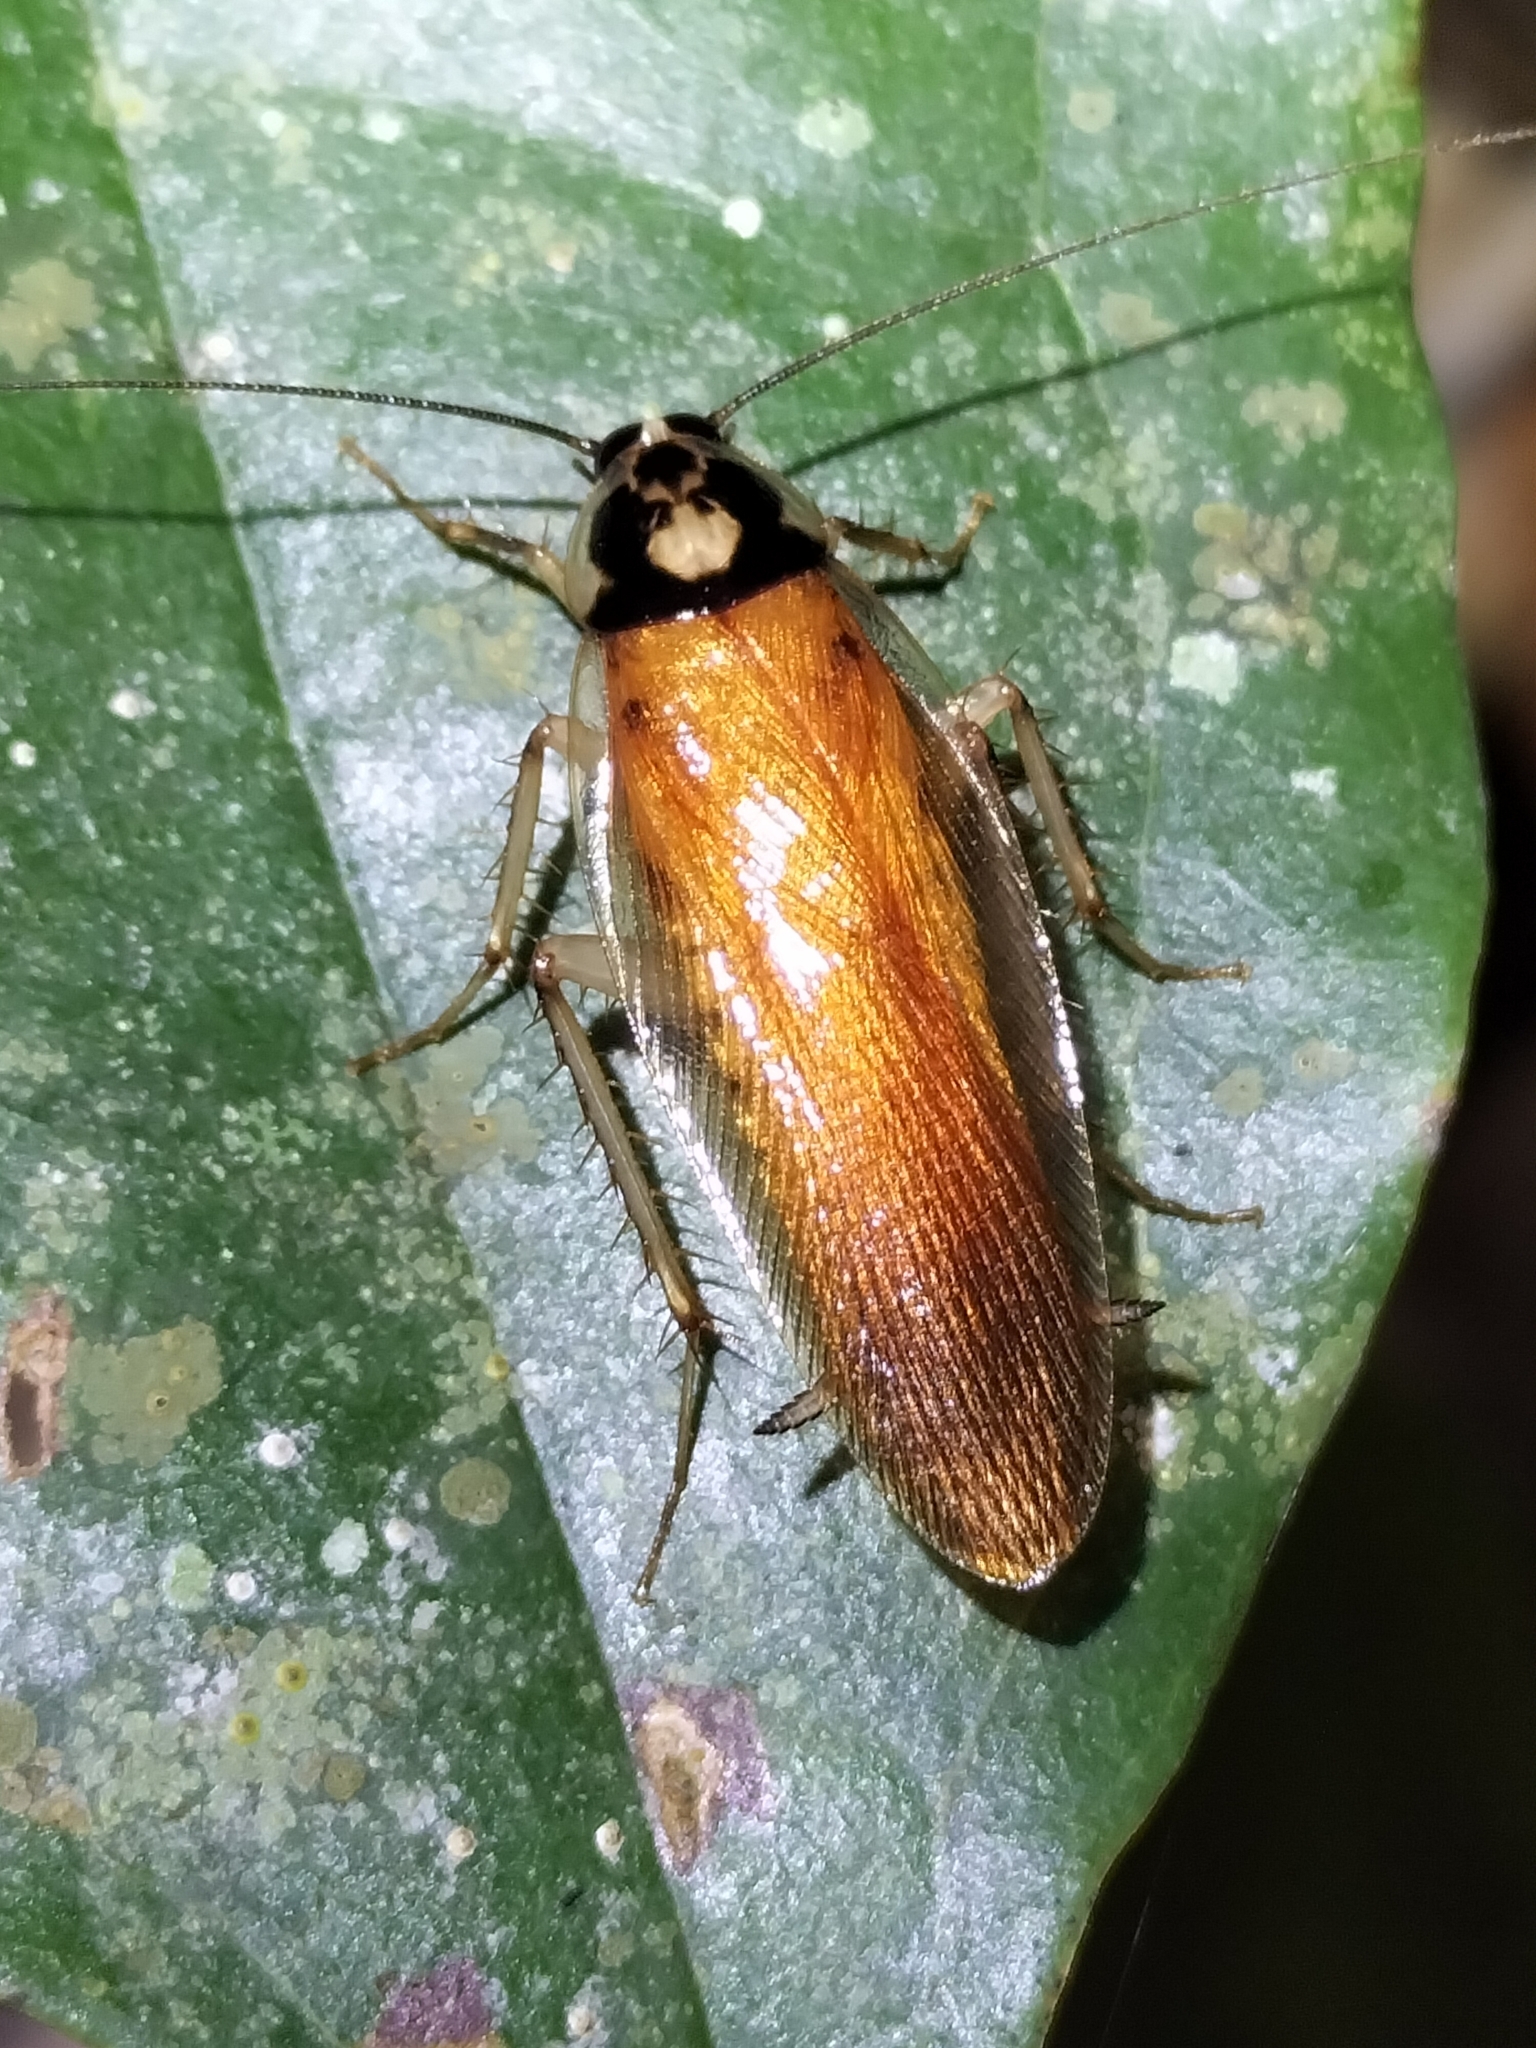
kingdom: Animalia
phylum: Arthropoda
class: Insecta
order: Blattodea
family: Ectobiidae
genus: Johnrehnia
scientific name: Johnrehnia lakebarrina
